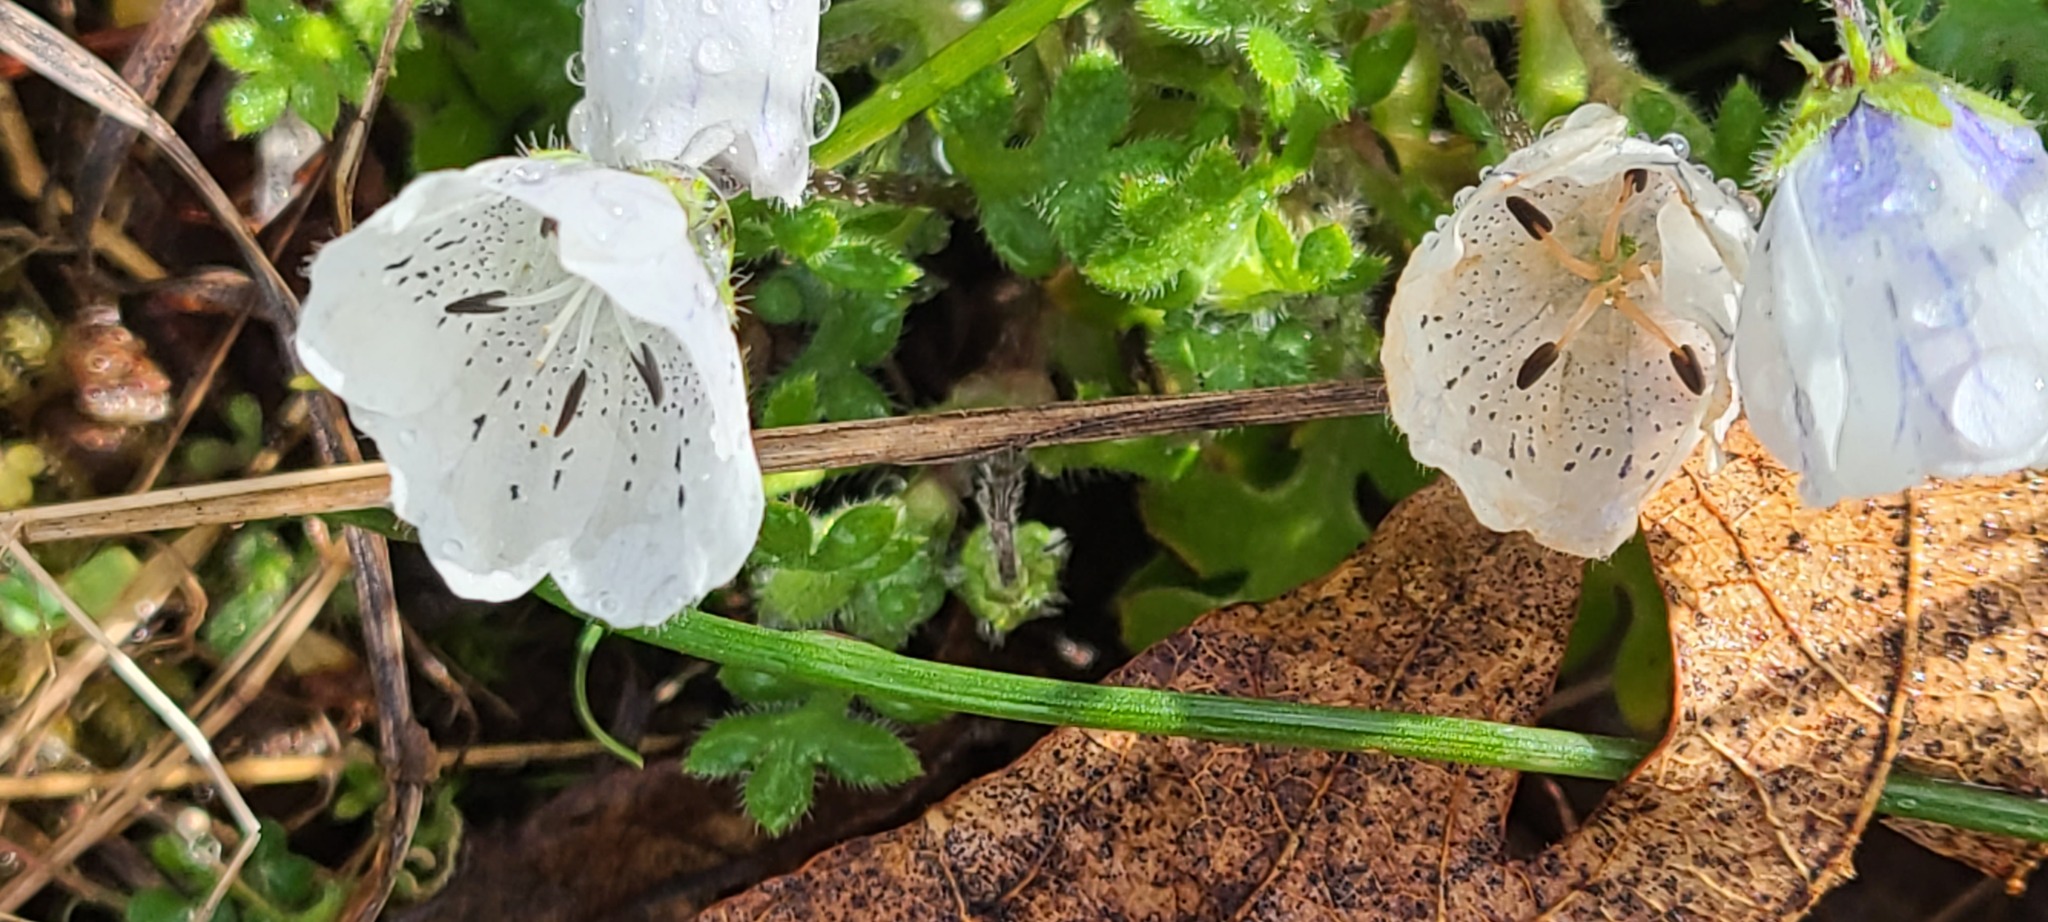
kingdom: Plantae
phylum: Tracheophyta
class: Magnoliopsida
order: Boraginales
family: Hydrophyllaceae
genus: Nemophila
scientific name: Nemophila menziesii
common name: Baby's-blue-eyes
